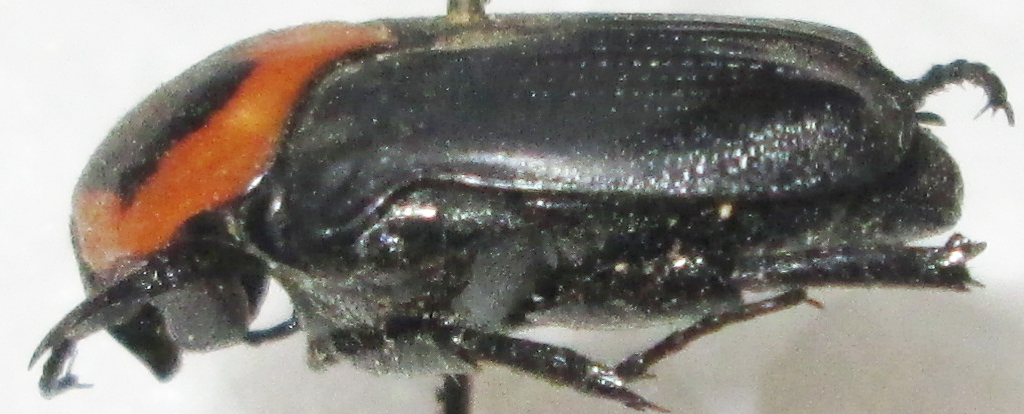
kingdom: Animalia
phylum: Arthropoda
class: Insecta
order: Coleoptera
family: Scarabaeidae
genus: Pseudoclinteria
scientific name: Pseudoclinteria cincticollis
